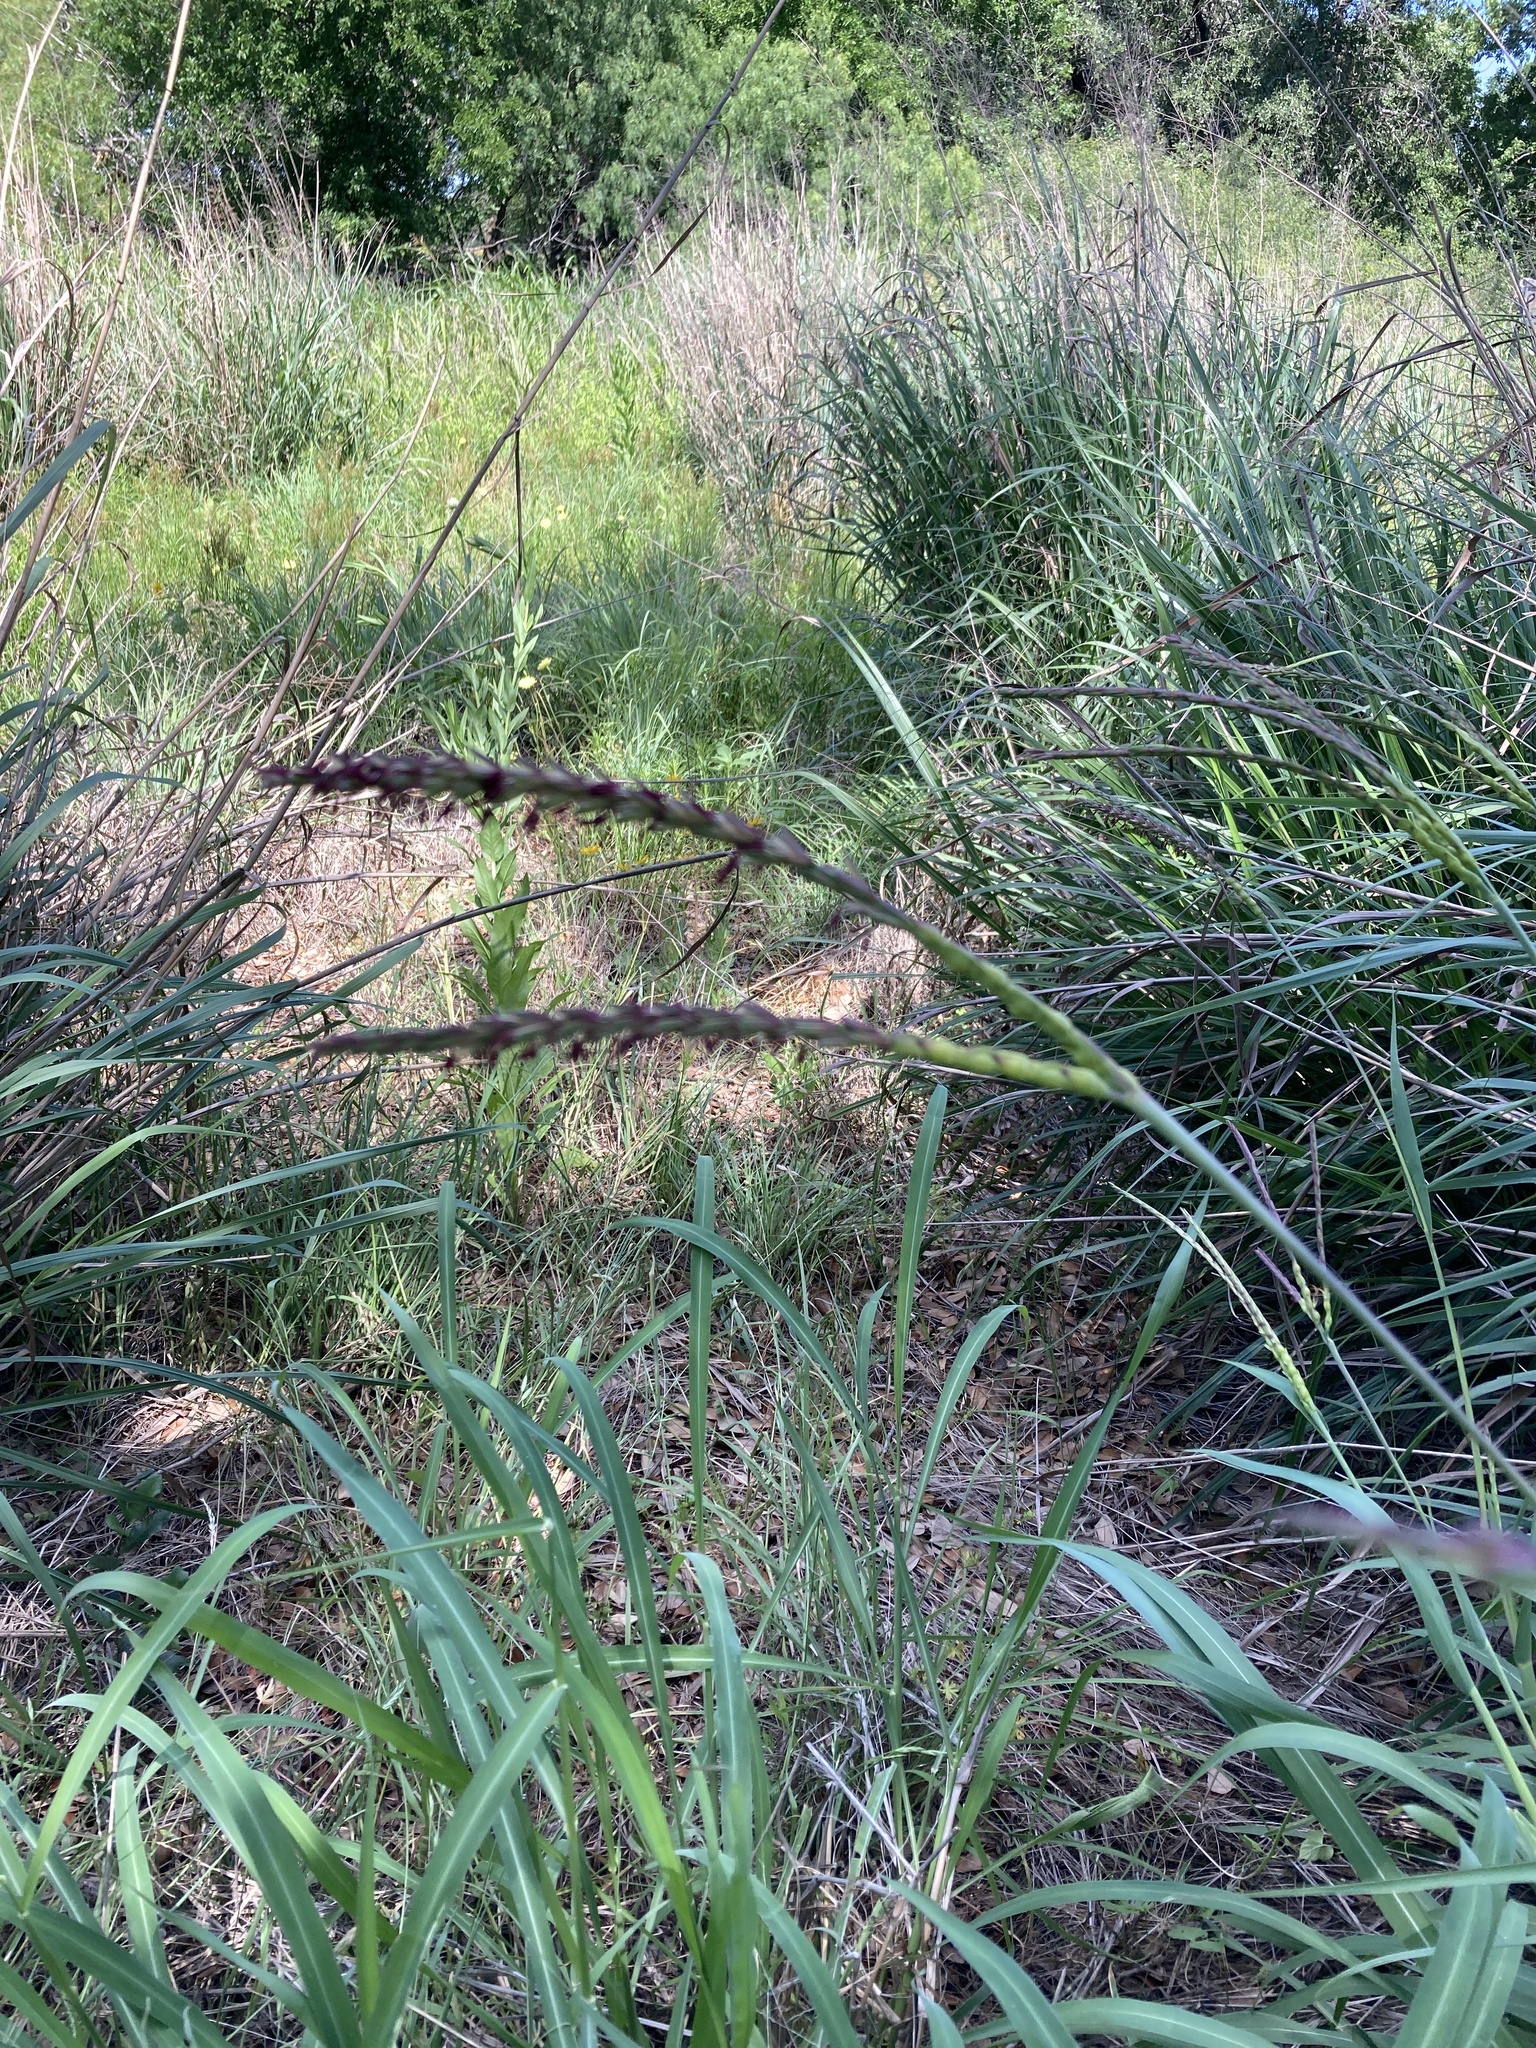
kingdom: Plantae
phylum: Tracheophyta
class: Liliopsida
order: Poales
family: Poaceae
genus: Tripsacum
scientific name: Tripsacum dactyloides
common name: Buffalo-grass
